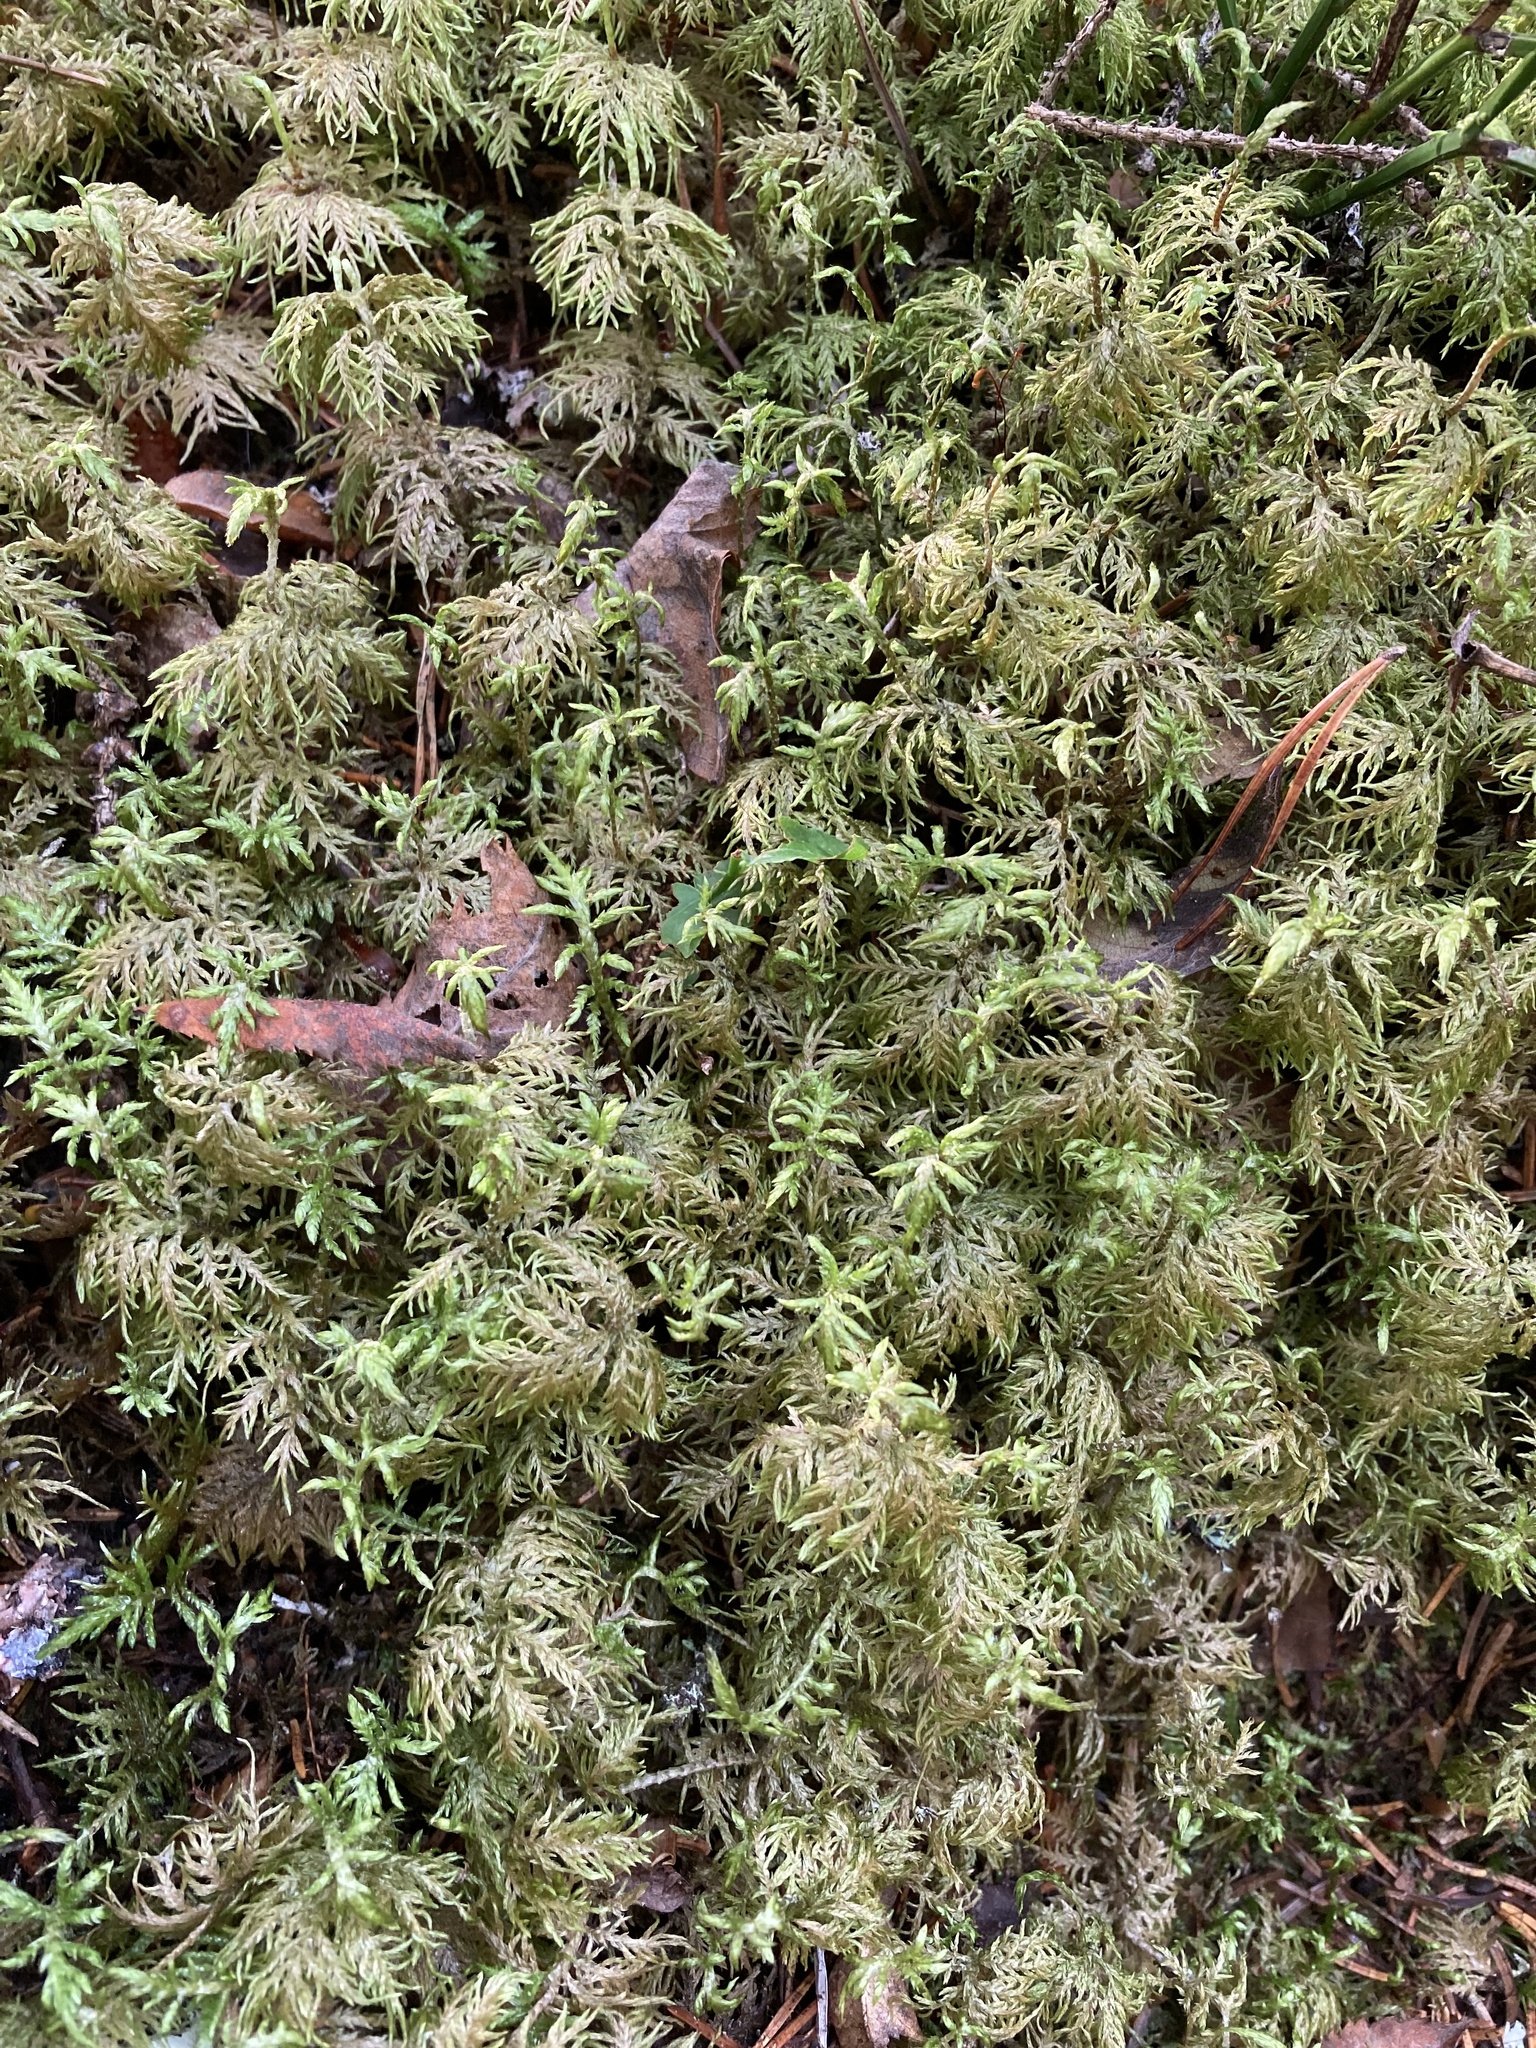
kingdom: Plantae
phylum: Bryophyta
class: Bryopsida
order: Hypnales
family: Hylocomiaceae
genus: Hylocomium
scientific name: Hylocomium splendens
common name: Stairstep moss
